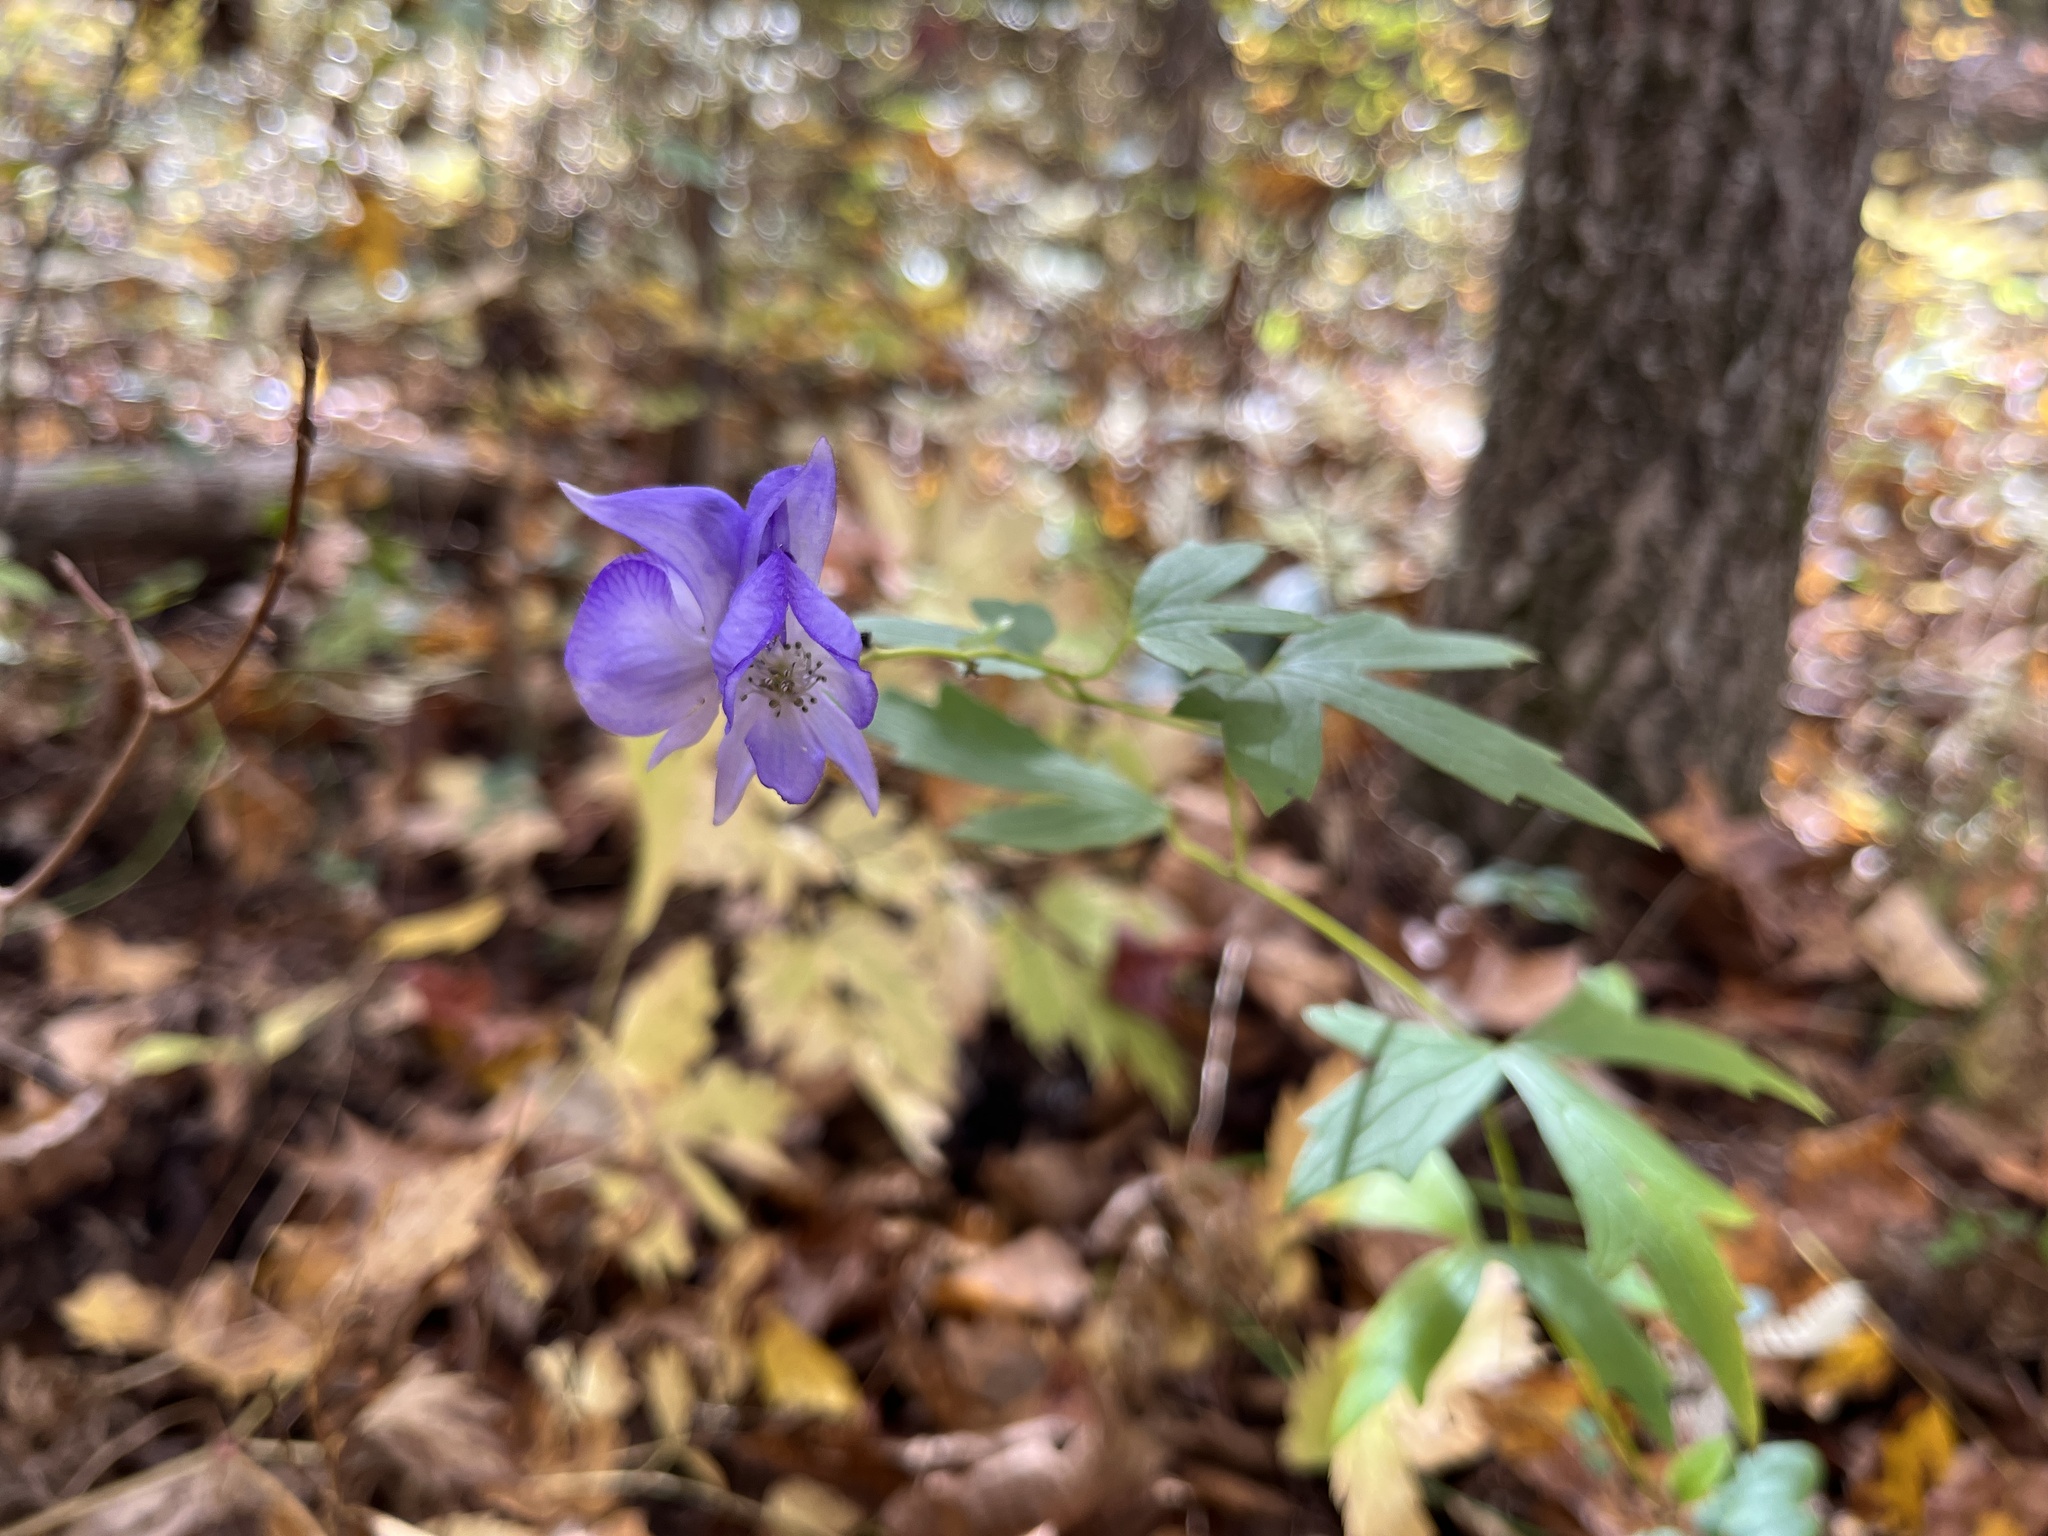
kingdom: Plantae
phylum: Tracheophyta
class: Magnoliopsida
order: Ranunculales
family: Ranunculaceae
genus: Aconitum
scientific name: Aconitum uncinatum
